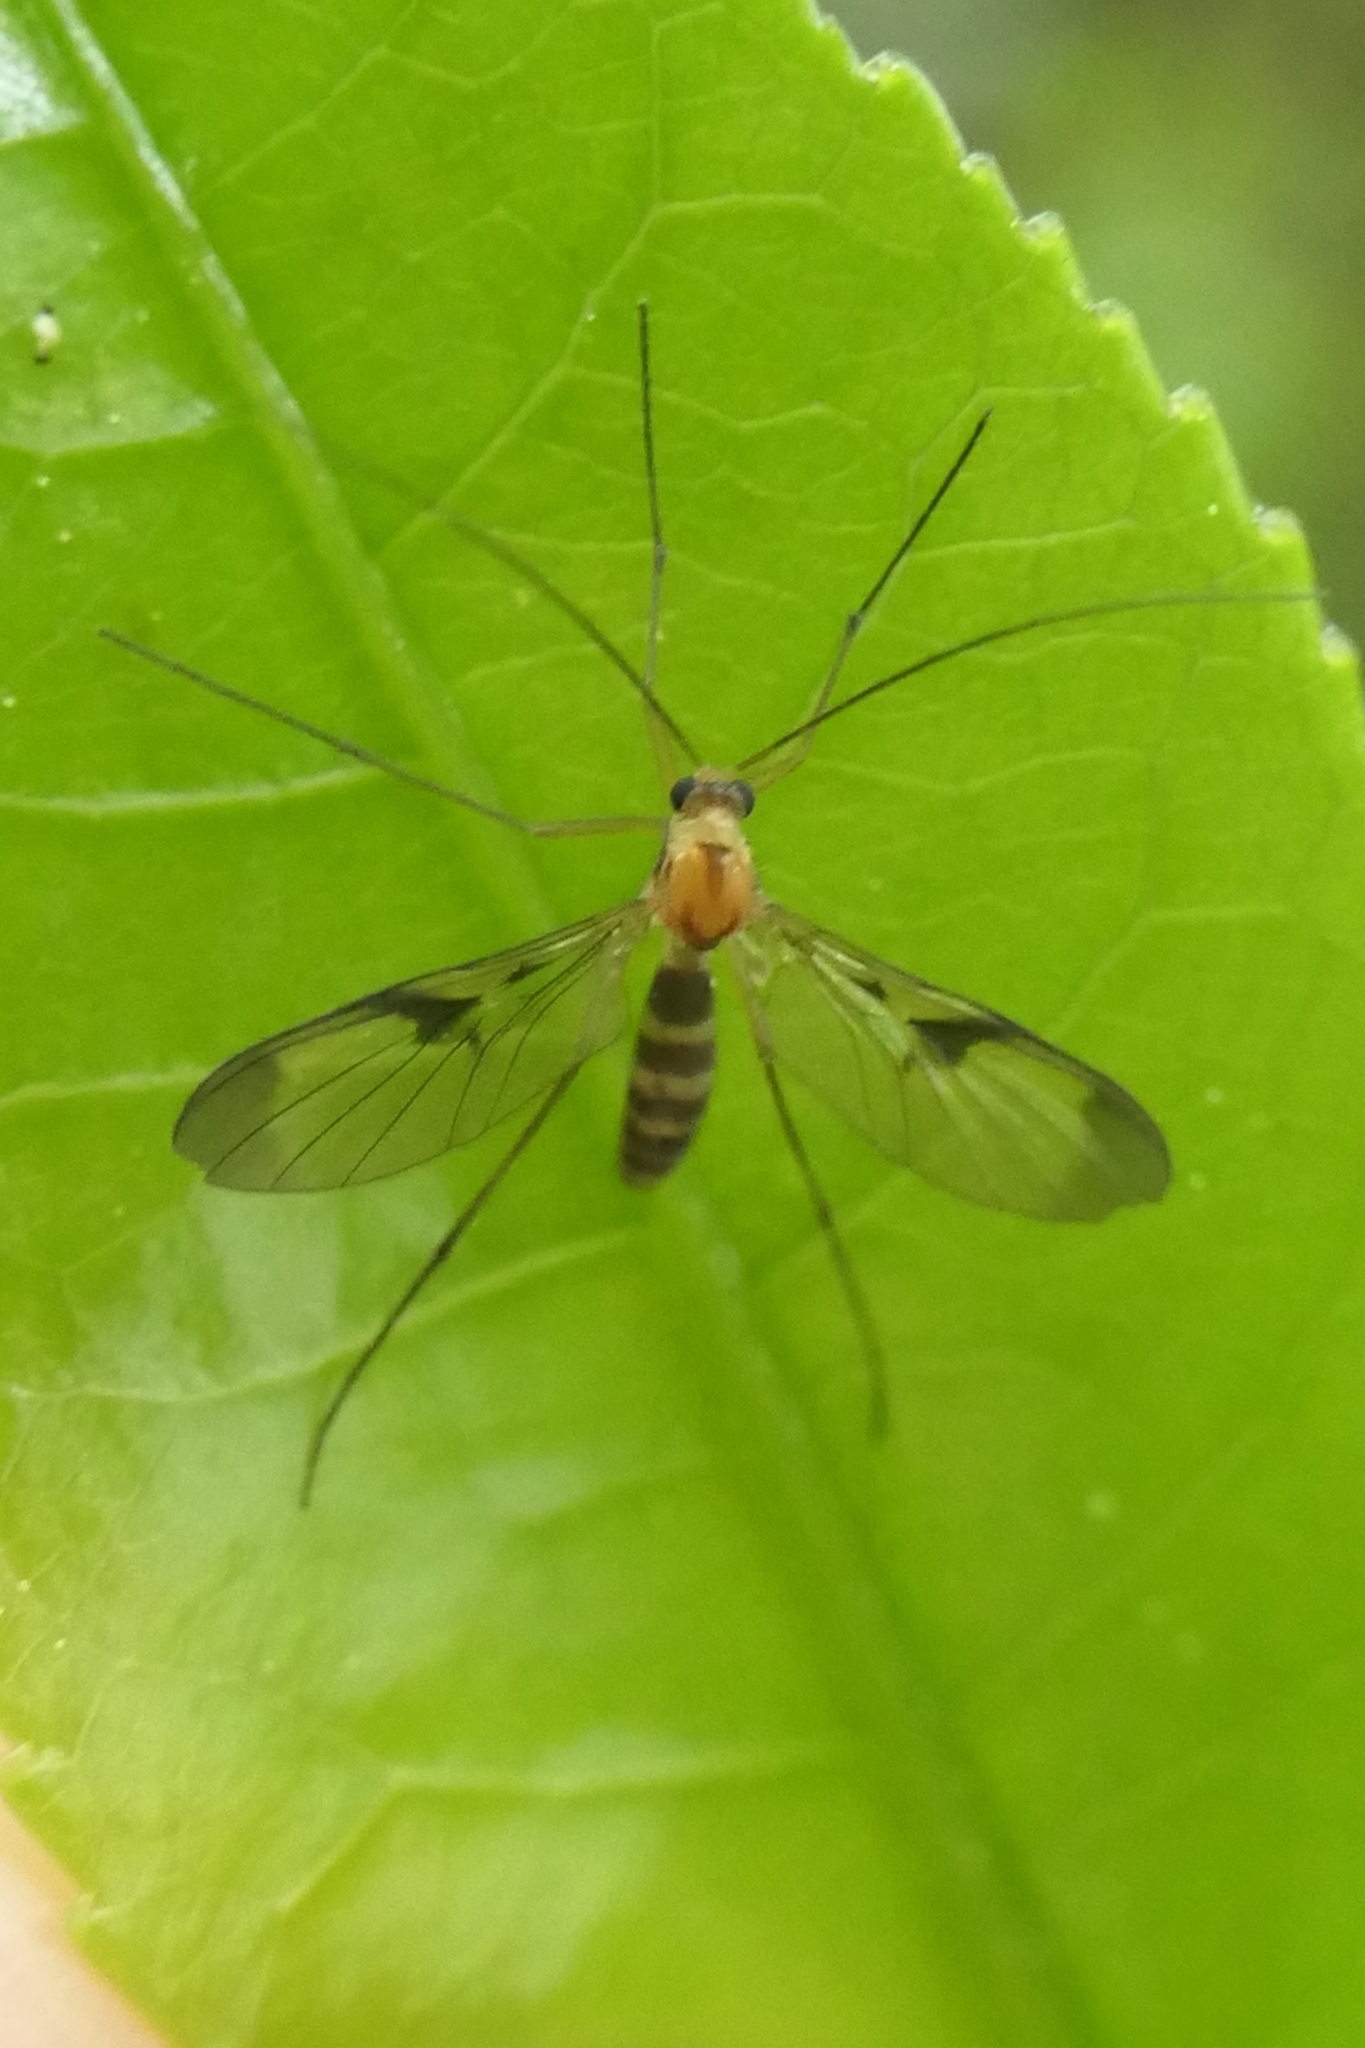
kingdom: Animalia
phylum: Arthropoda
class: Insecta
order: Diptera
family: Keroplatidae
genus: Macrocera
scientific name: Macrocera scoparia
